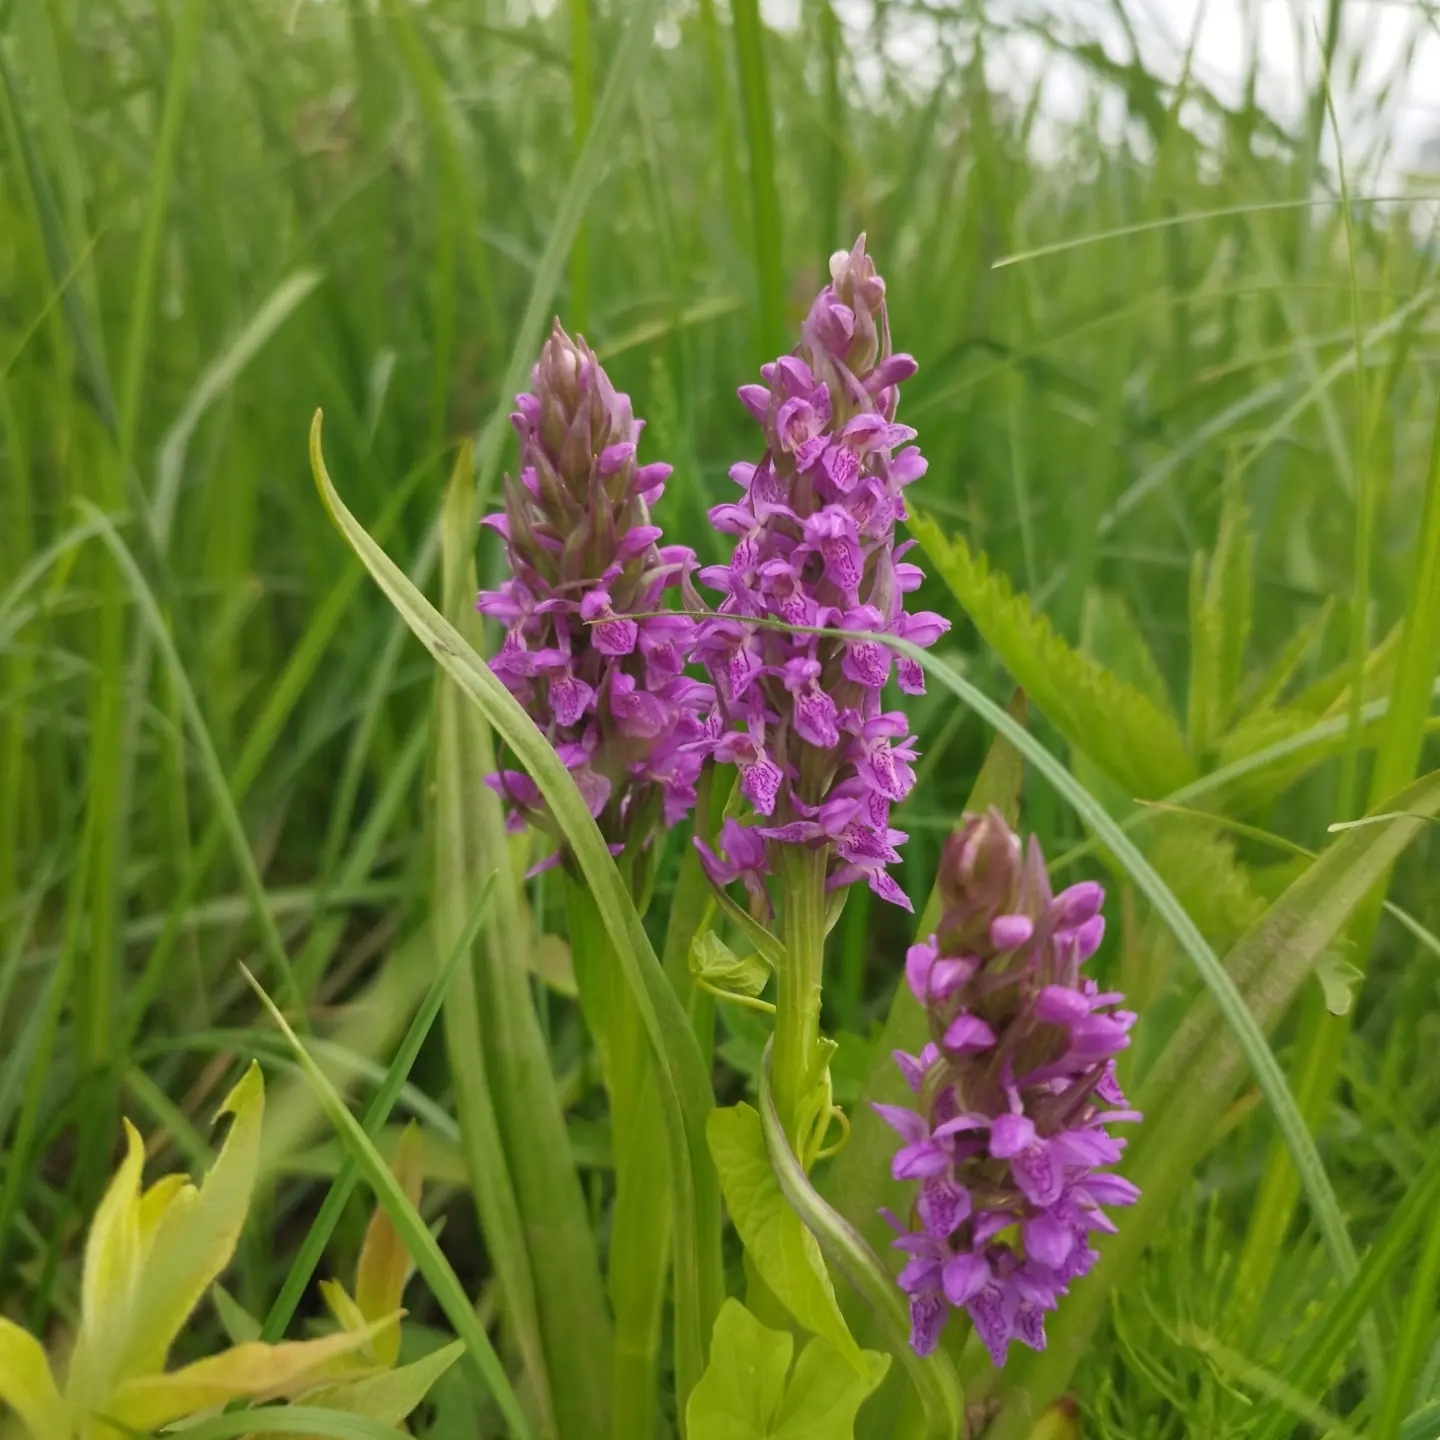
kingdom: Plantae
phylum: Tracheophyta
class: Liliopsida
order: Asparagales
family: Orchidaceae
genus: Dactylorhiza
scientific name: Dactylorhiza incarnata
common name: Early marsh-orchid
